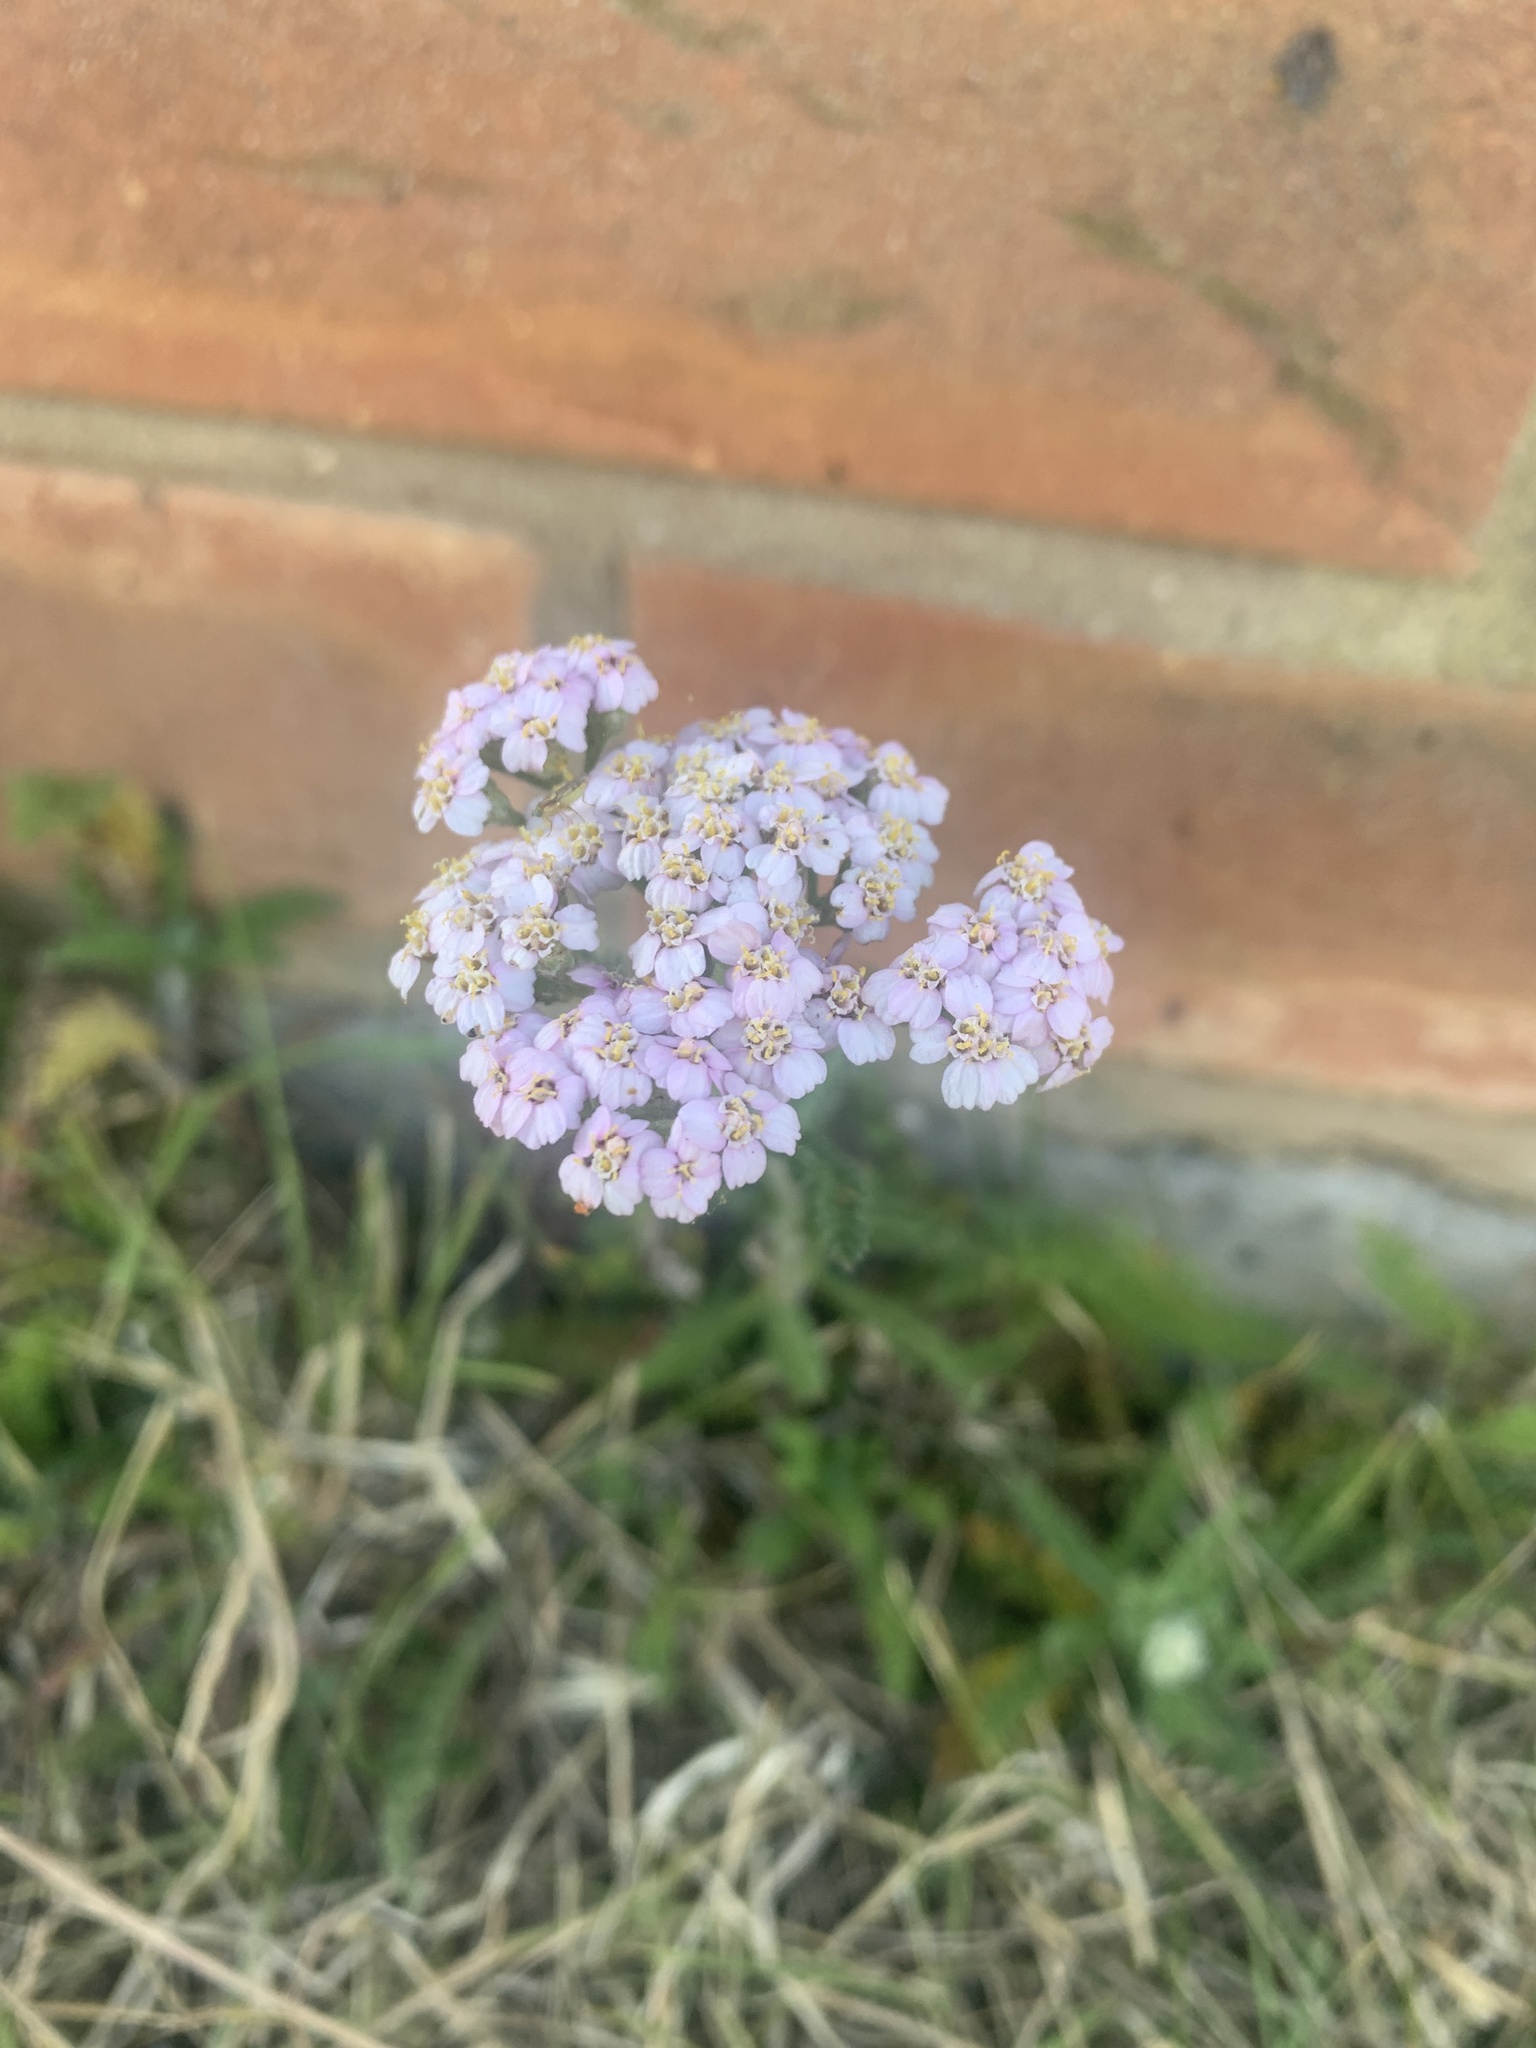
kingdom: Plantae
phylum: Tracheophyta
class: Magnoliopsida
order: Asterales
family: Asteraceae
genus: Achillea
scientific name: Achillea millefolium
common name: Yarrow
